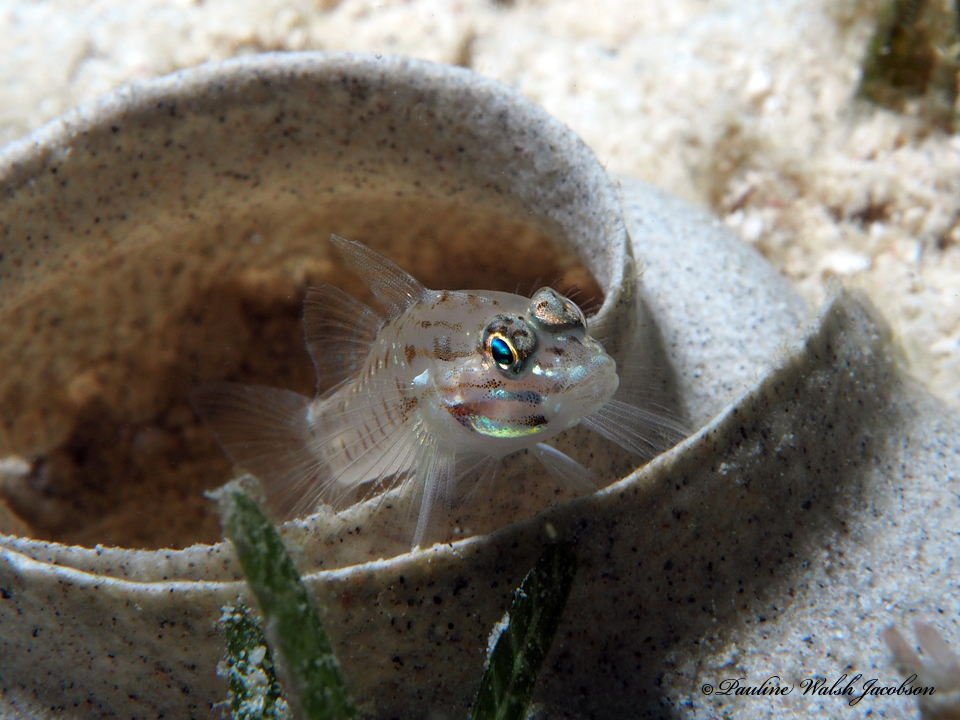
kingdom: Animalia
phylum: Chordata
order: Perciformes
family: Gobiidae
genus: Coryphopterus
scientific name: Coryphopterus tortugae
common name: Patch-reef goby
